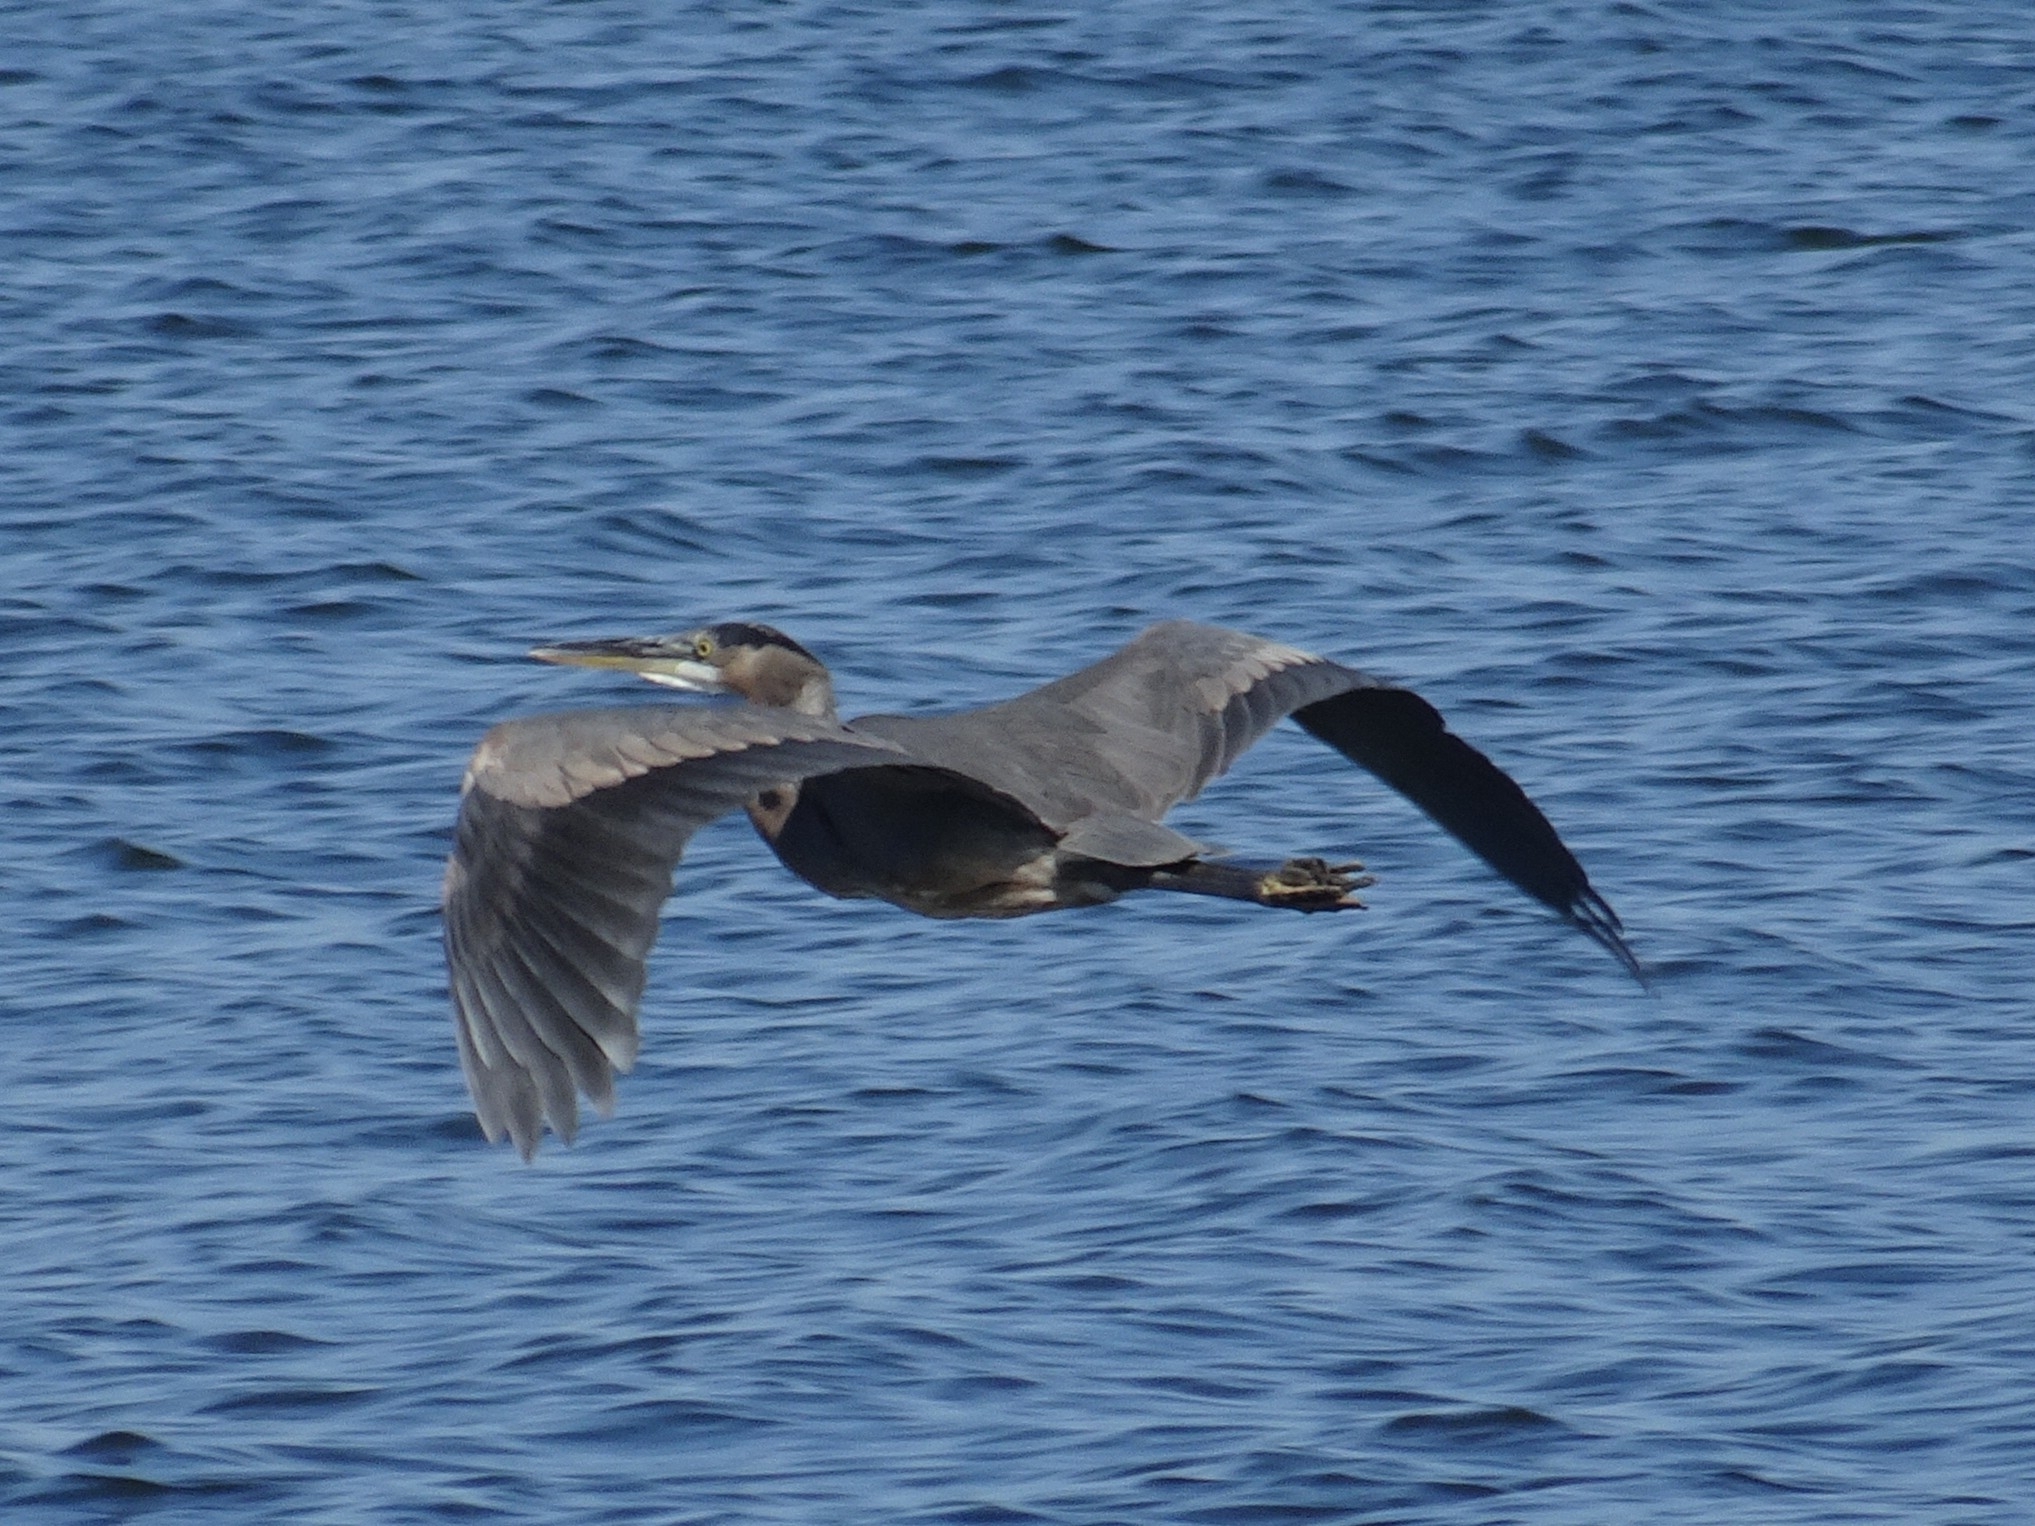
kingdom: Animalia
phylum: Chordata
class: Aves
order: Pelecaniformes
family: Ardeidae
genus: Ardea
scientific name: Ardea herodias
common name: Great blue heron
